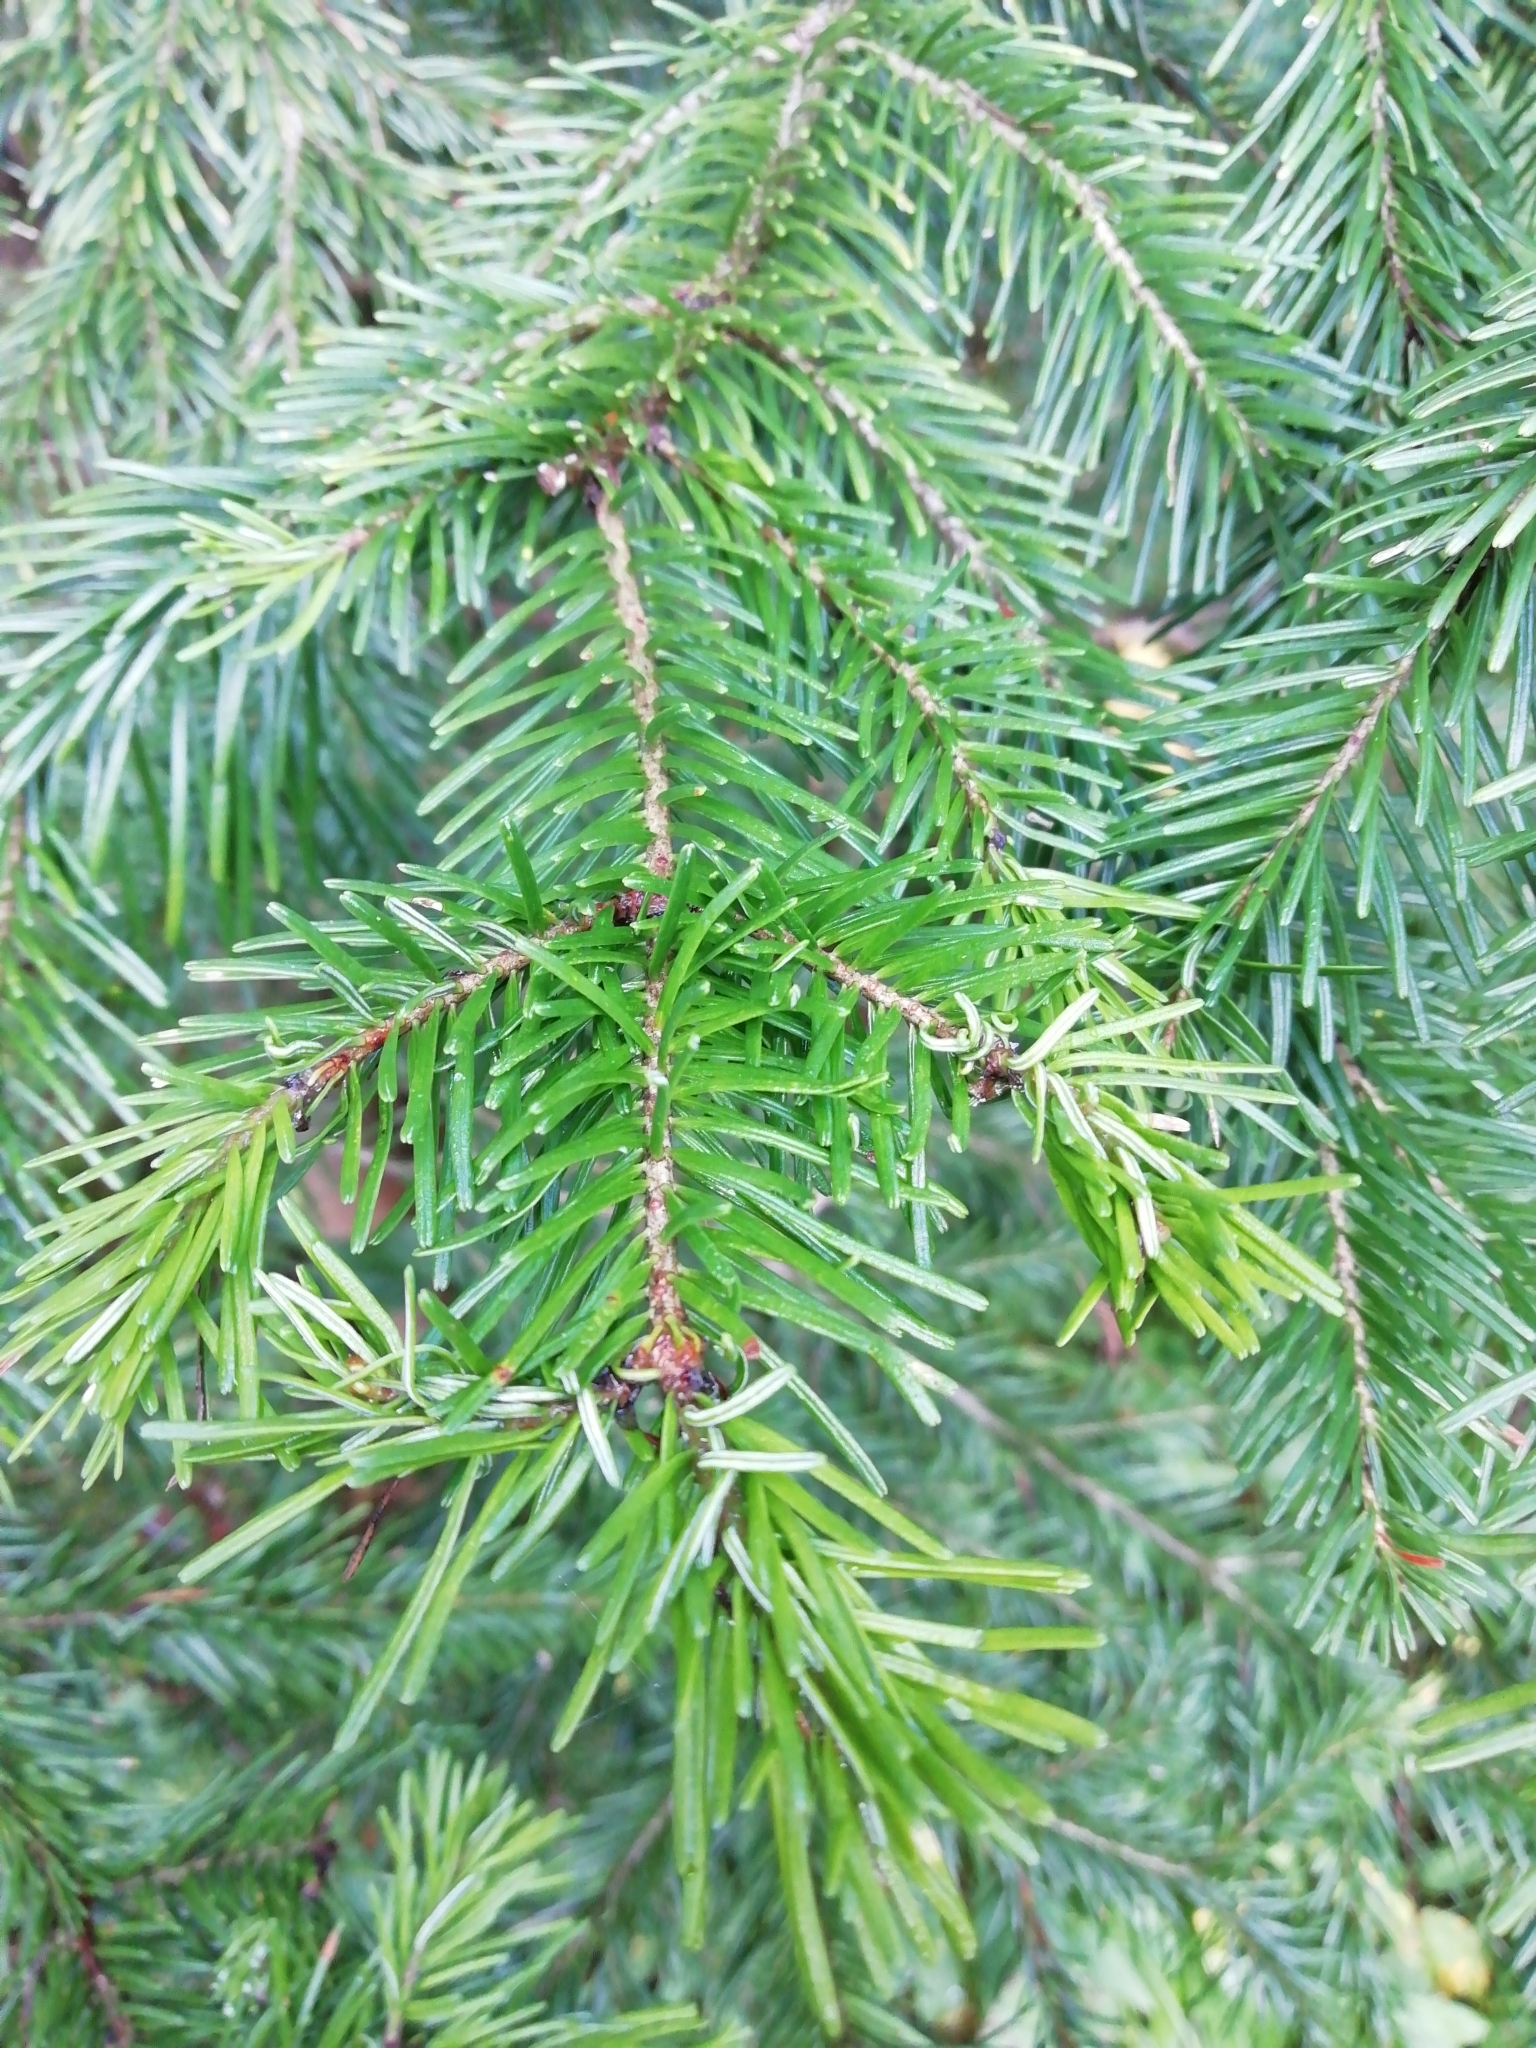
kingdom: Plantae
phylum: Tracheophyta
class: Pinopsida
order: Pinales
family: Pinaceae
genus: Abies
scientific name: Abies sibirica
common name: Siberian fir
